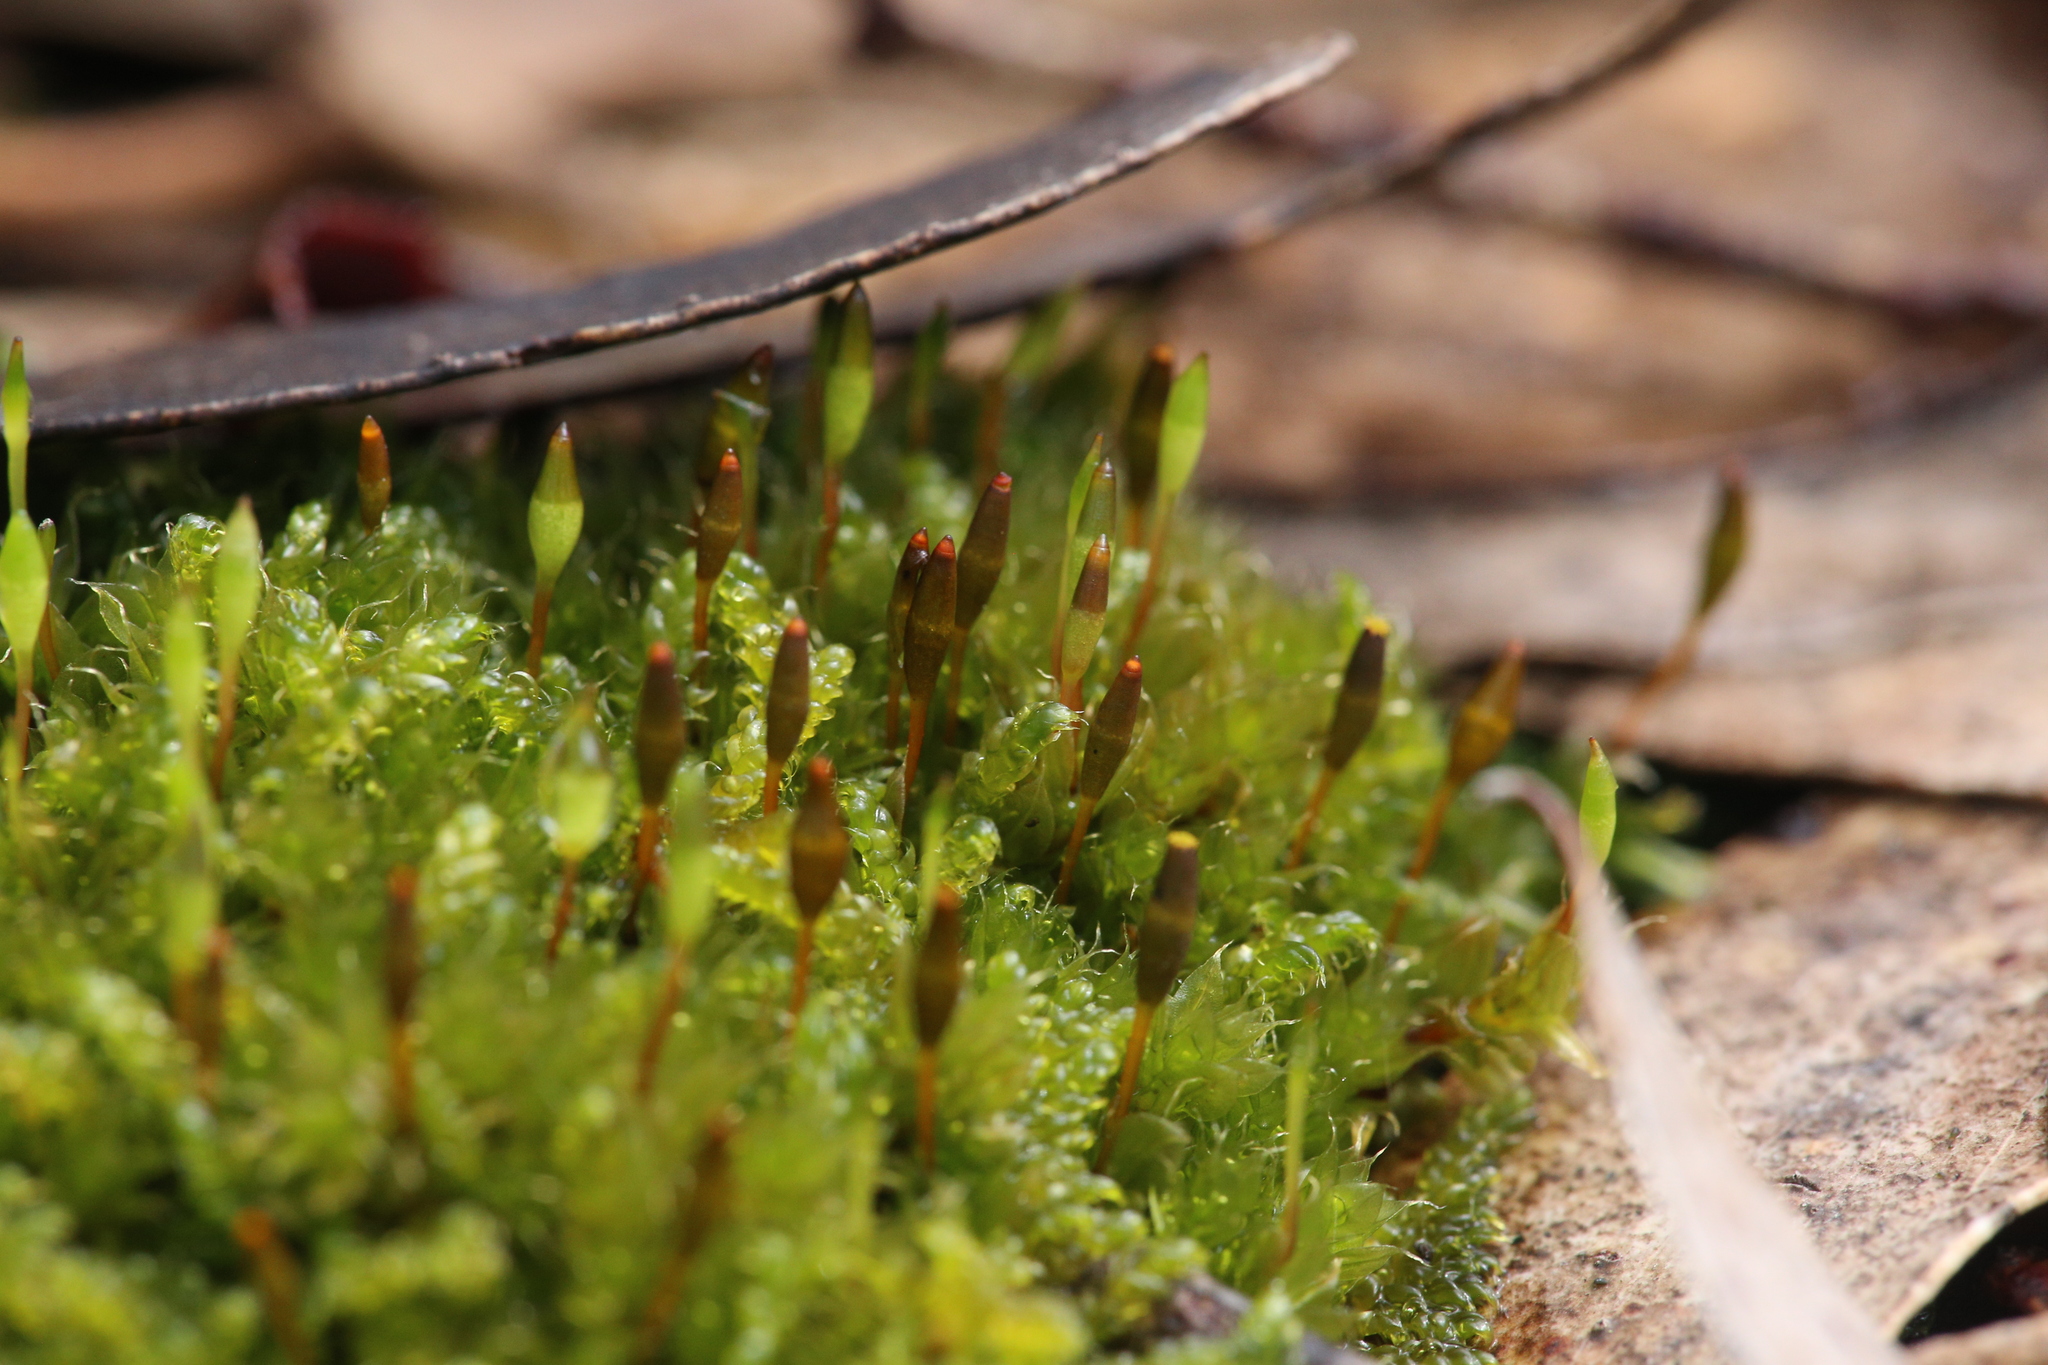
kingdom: Plantae
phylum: Bryophyta
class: Bryopsida
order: Splachnales
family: Splachnaceae
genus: Tayloria
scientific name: Tayloria octoblephara
